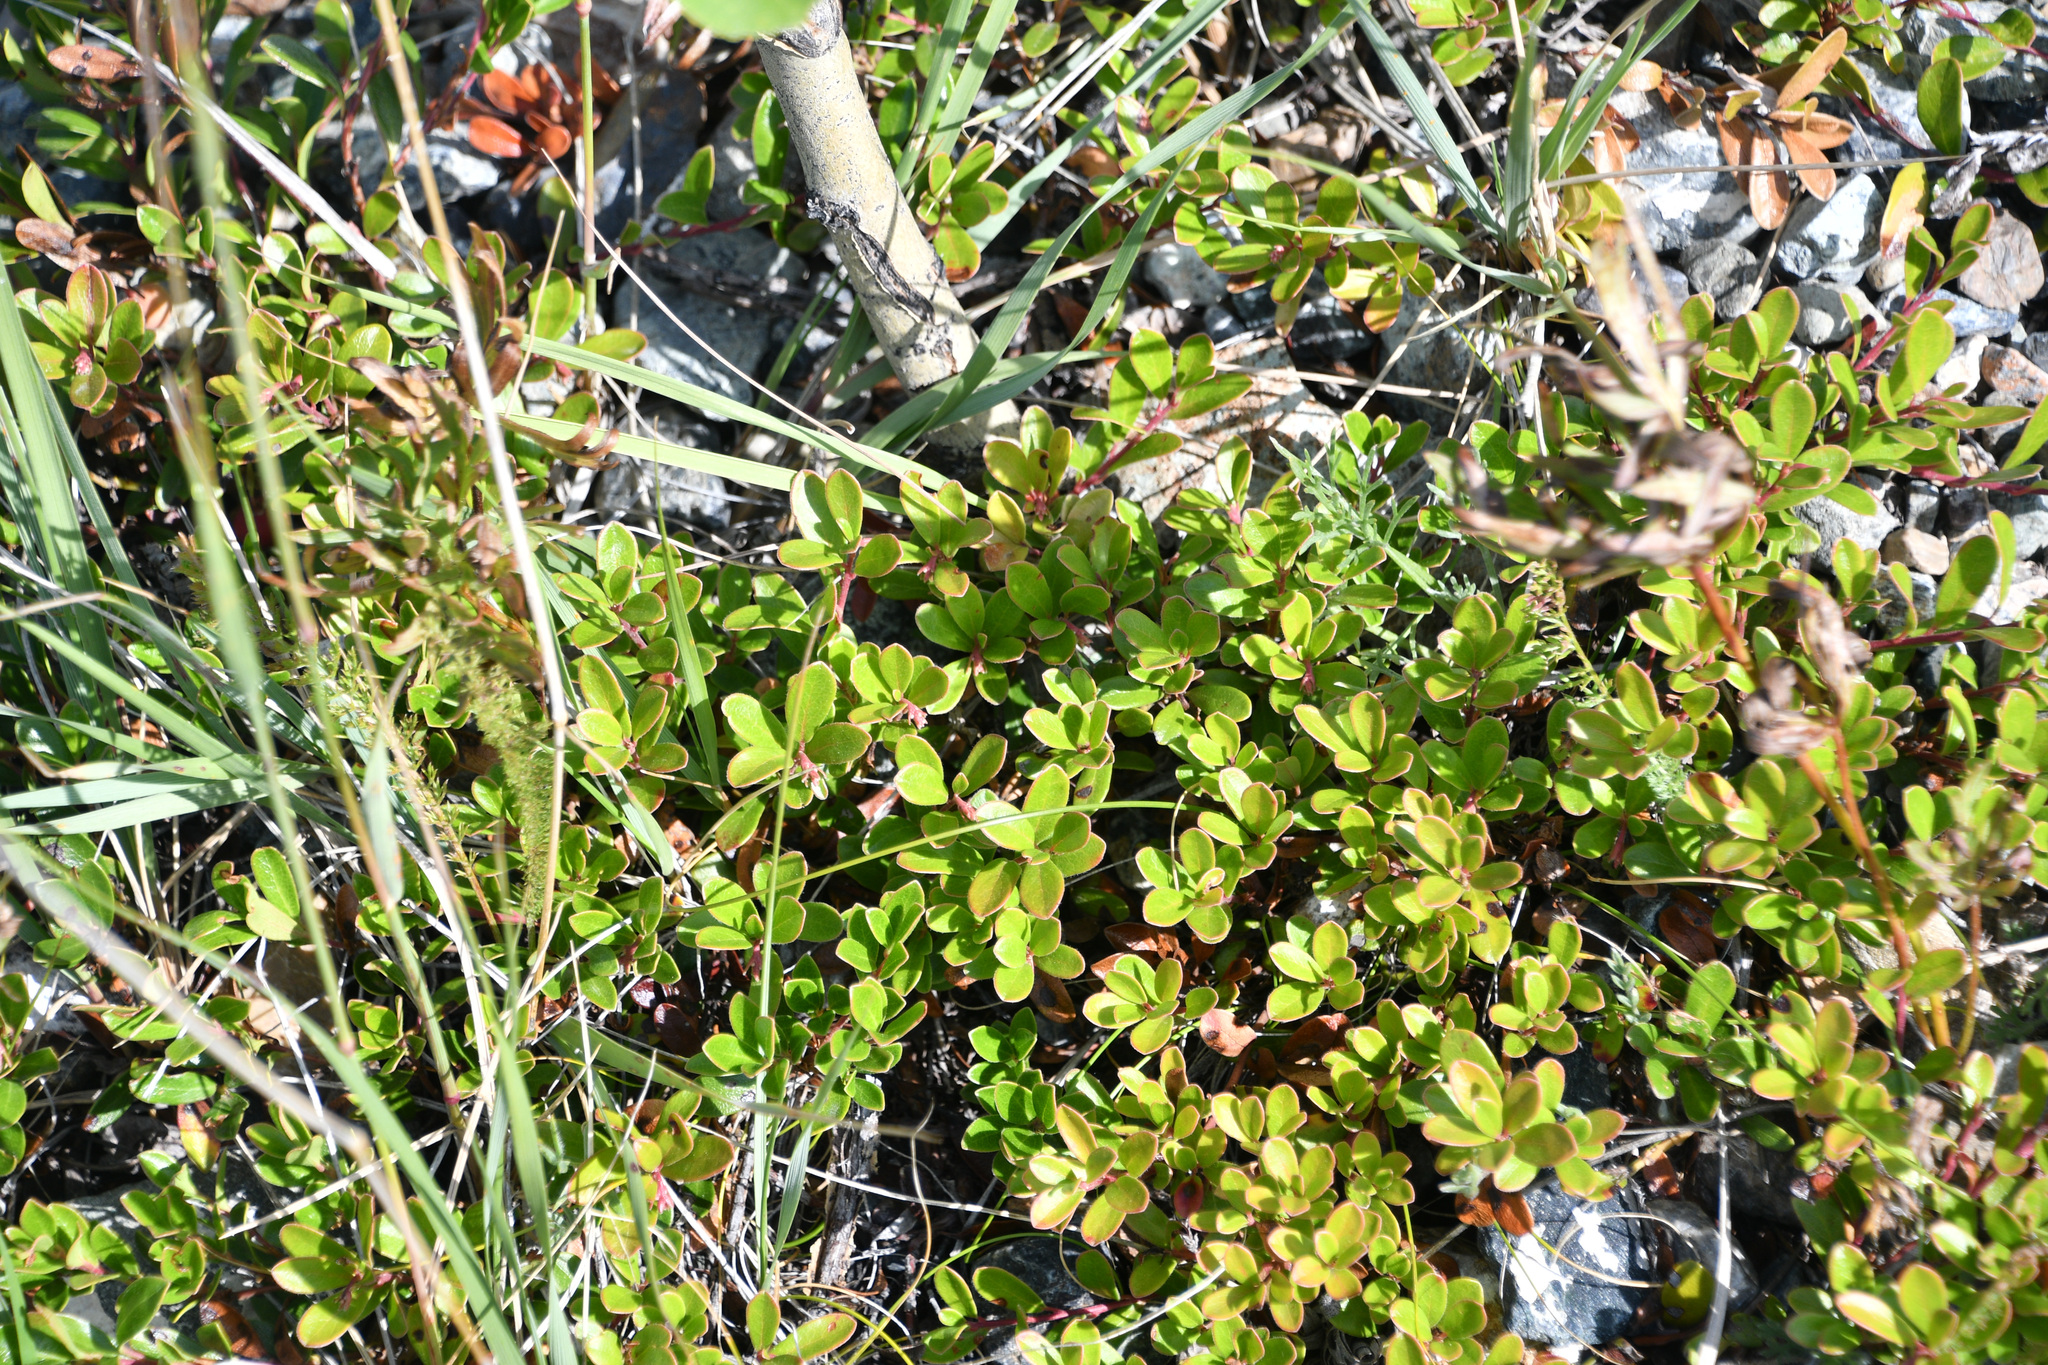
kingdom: Plantae
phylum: Tracheophyta
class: Magnoliopsida
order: Ericales
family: Ericaceae
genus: Arctostaphylos
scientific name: Arctostaphylos uva-ursi
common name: Bearberry
